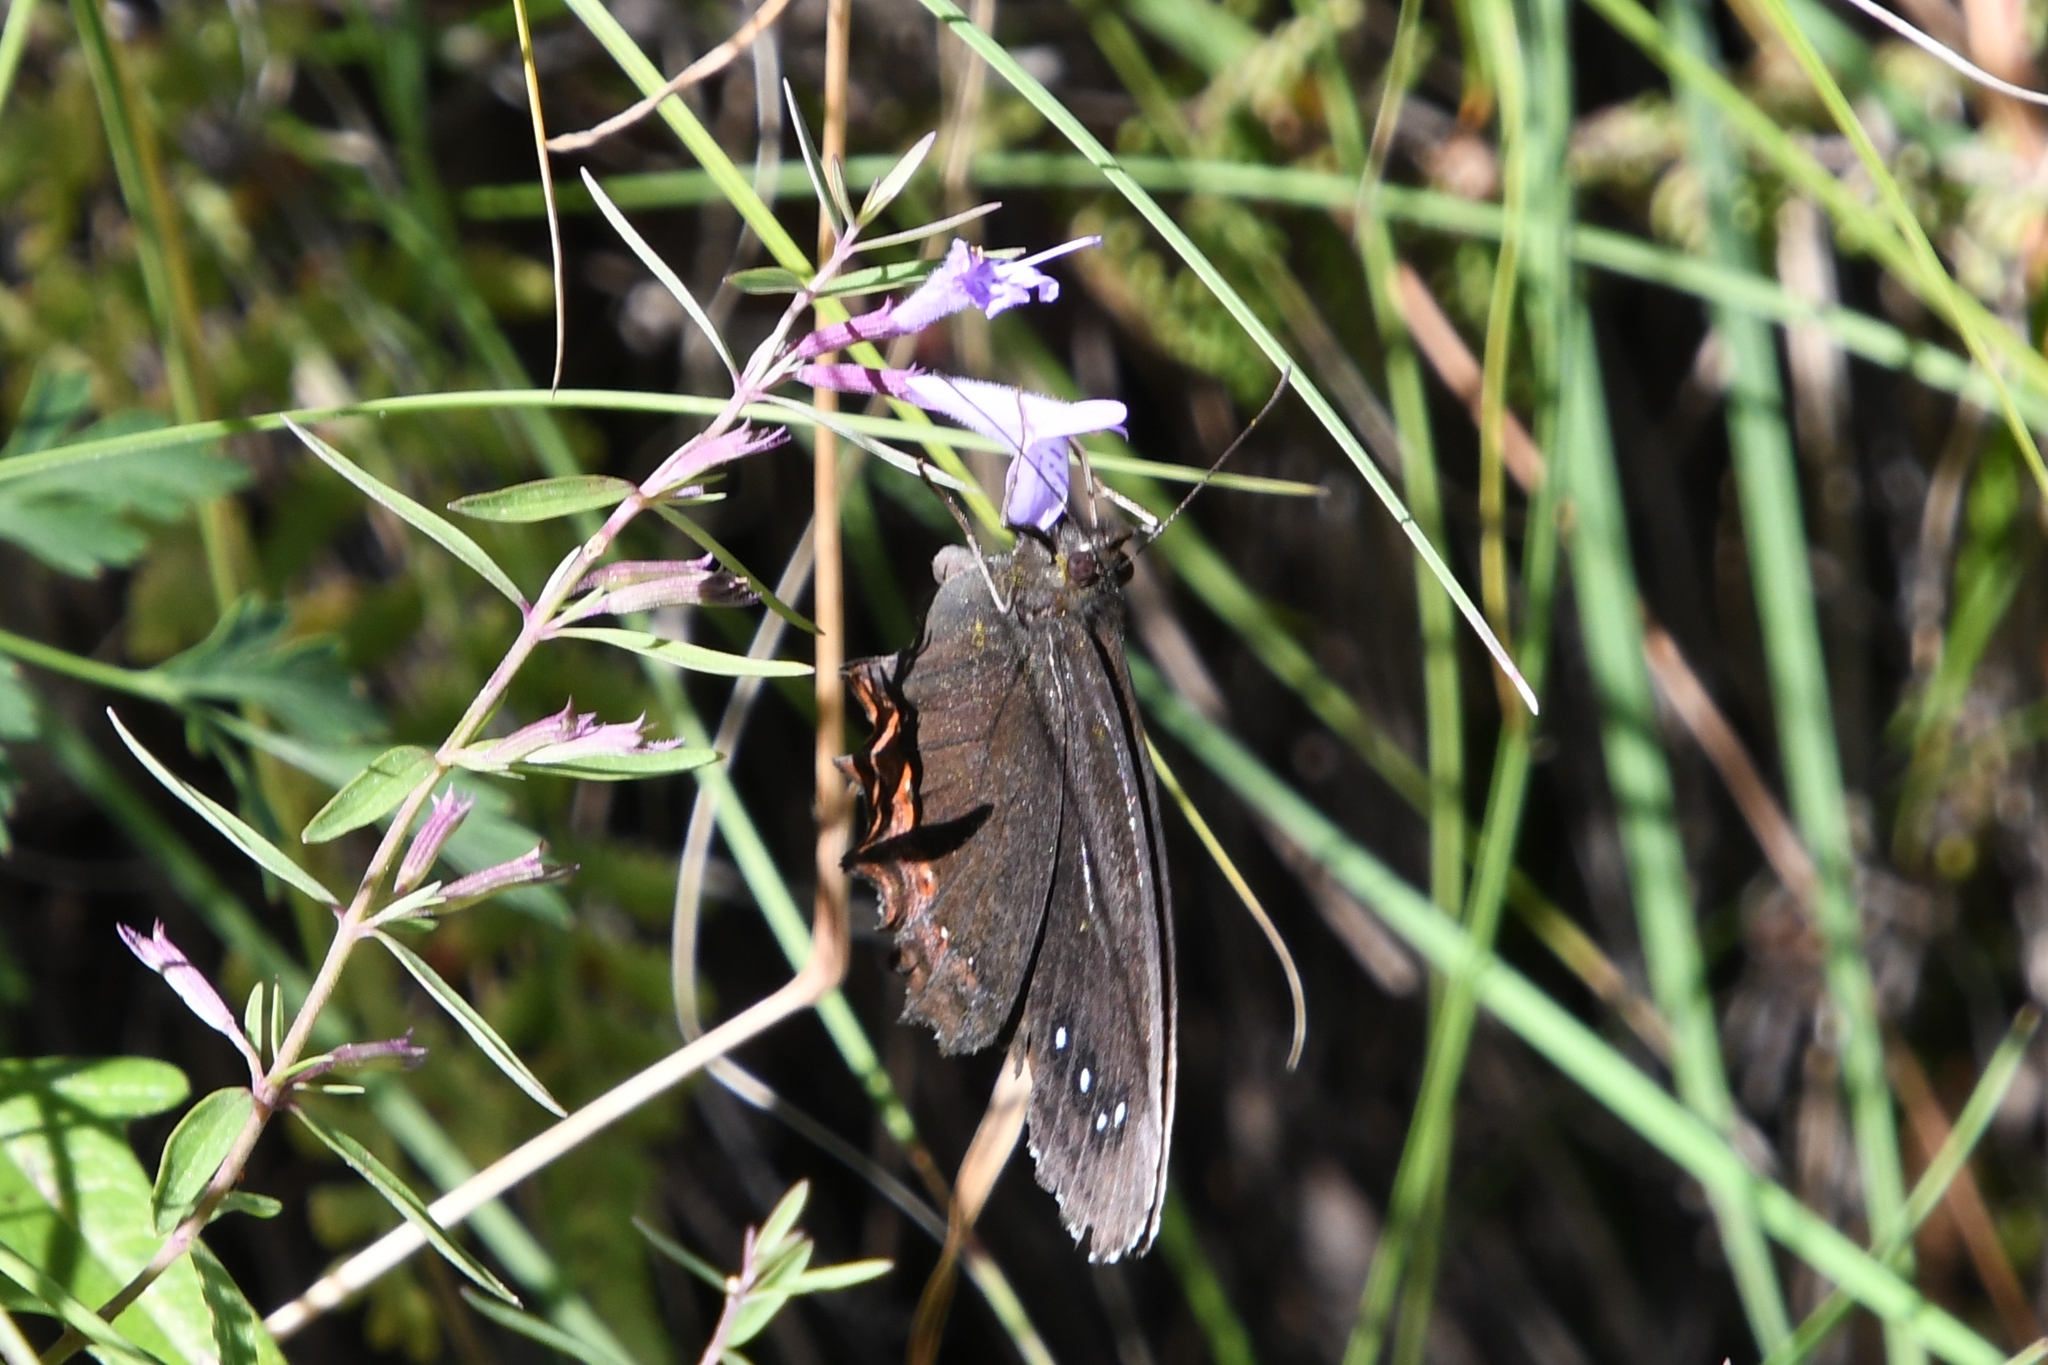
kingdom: Animalia
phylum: Arthropoda
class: Insecta
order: Lepidoptera
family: Nymphalidae
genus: Gyrocheilus
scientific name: Gyrocheilus patrobas
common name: Red-bordered satyr
